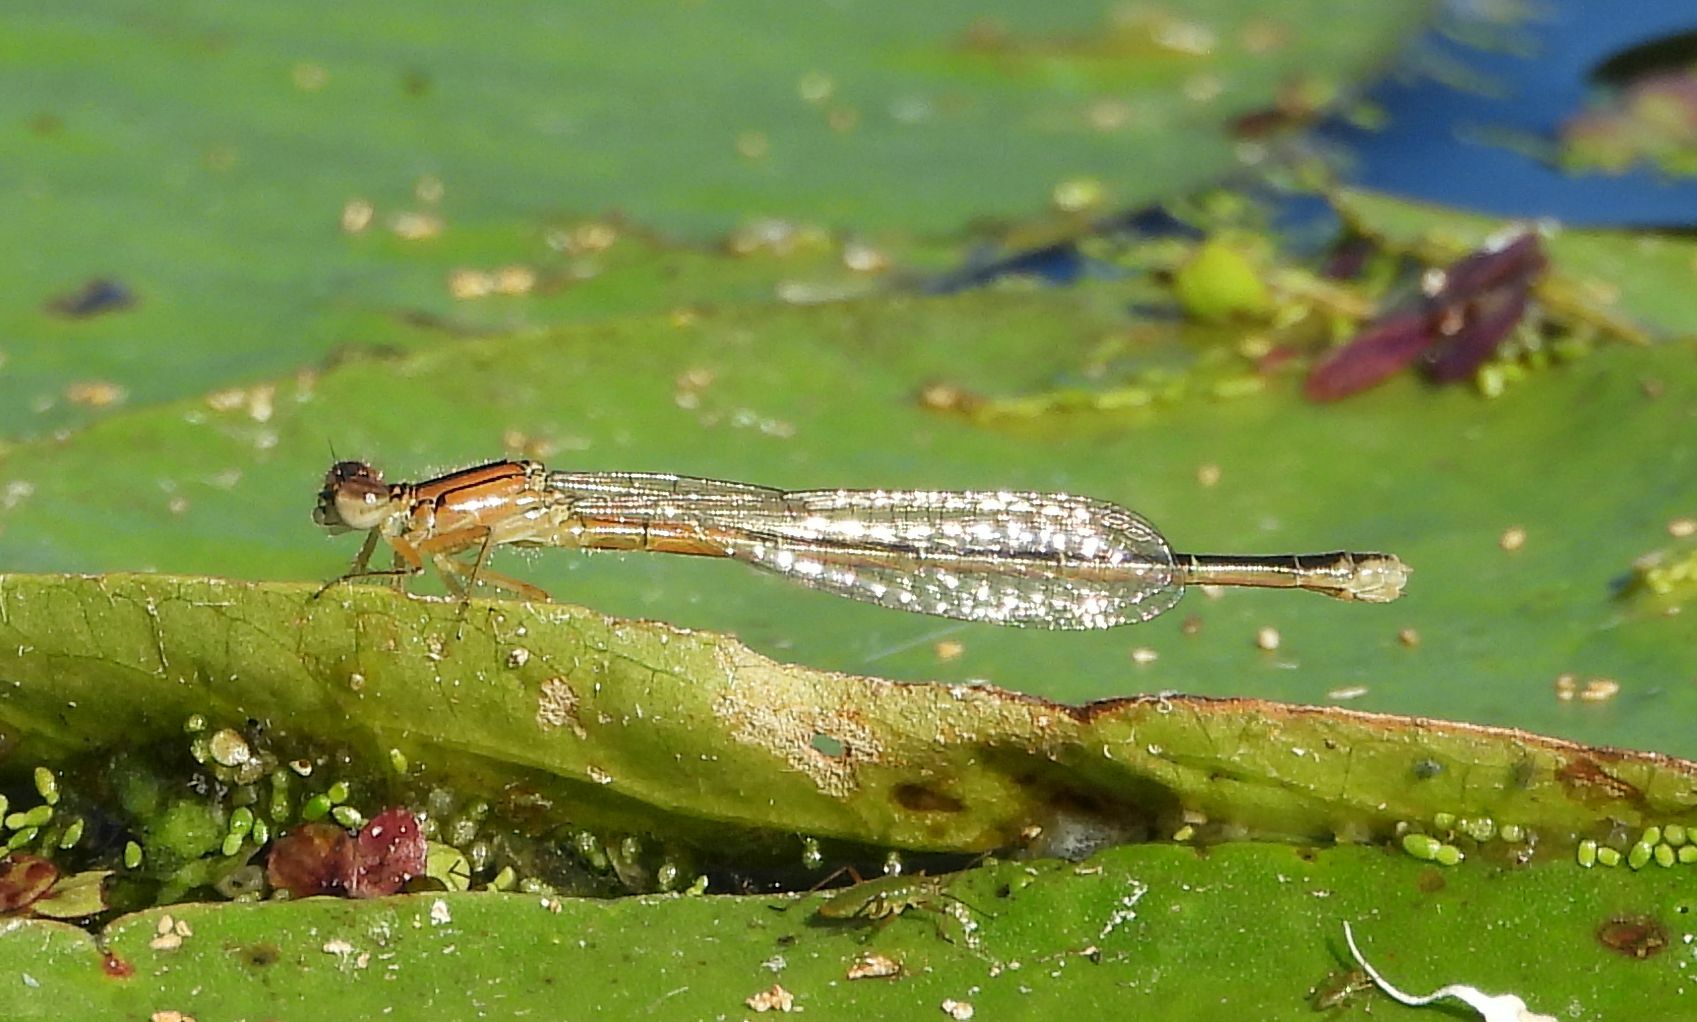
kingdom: Animalia
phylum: Arthropoda
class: Insecta
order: Odonata
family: Coenagrionidae
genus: Ischnura
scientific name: Ischnura verticalis
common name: Eastern forktail
